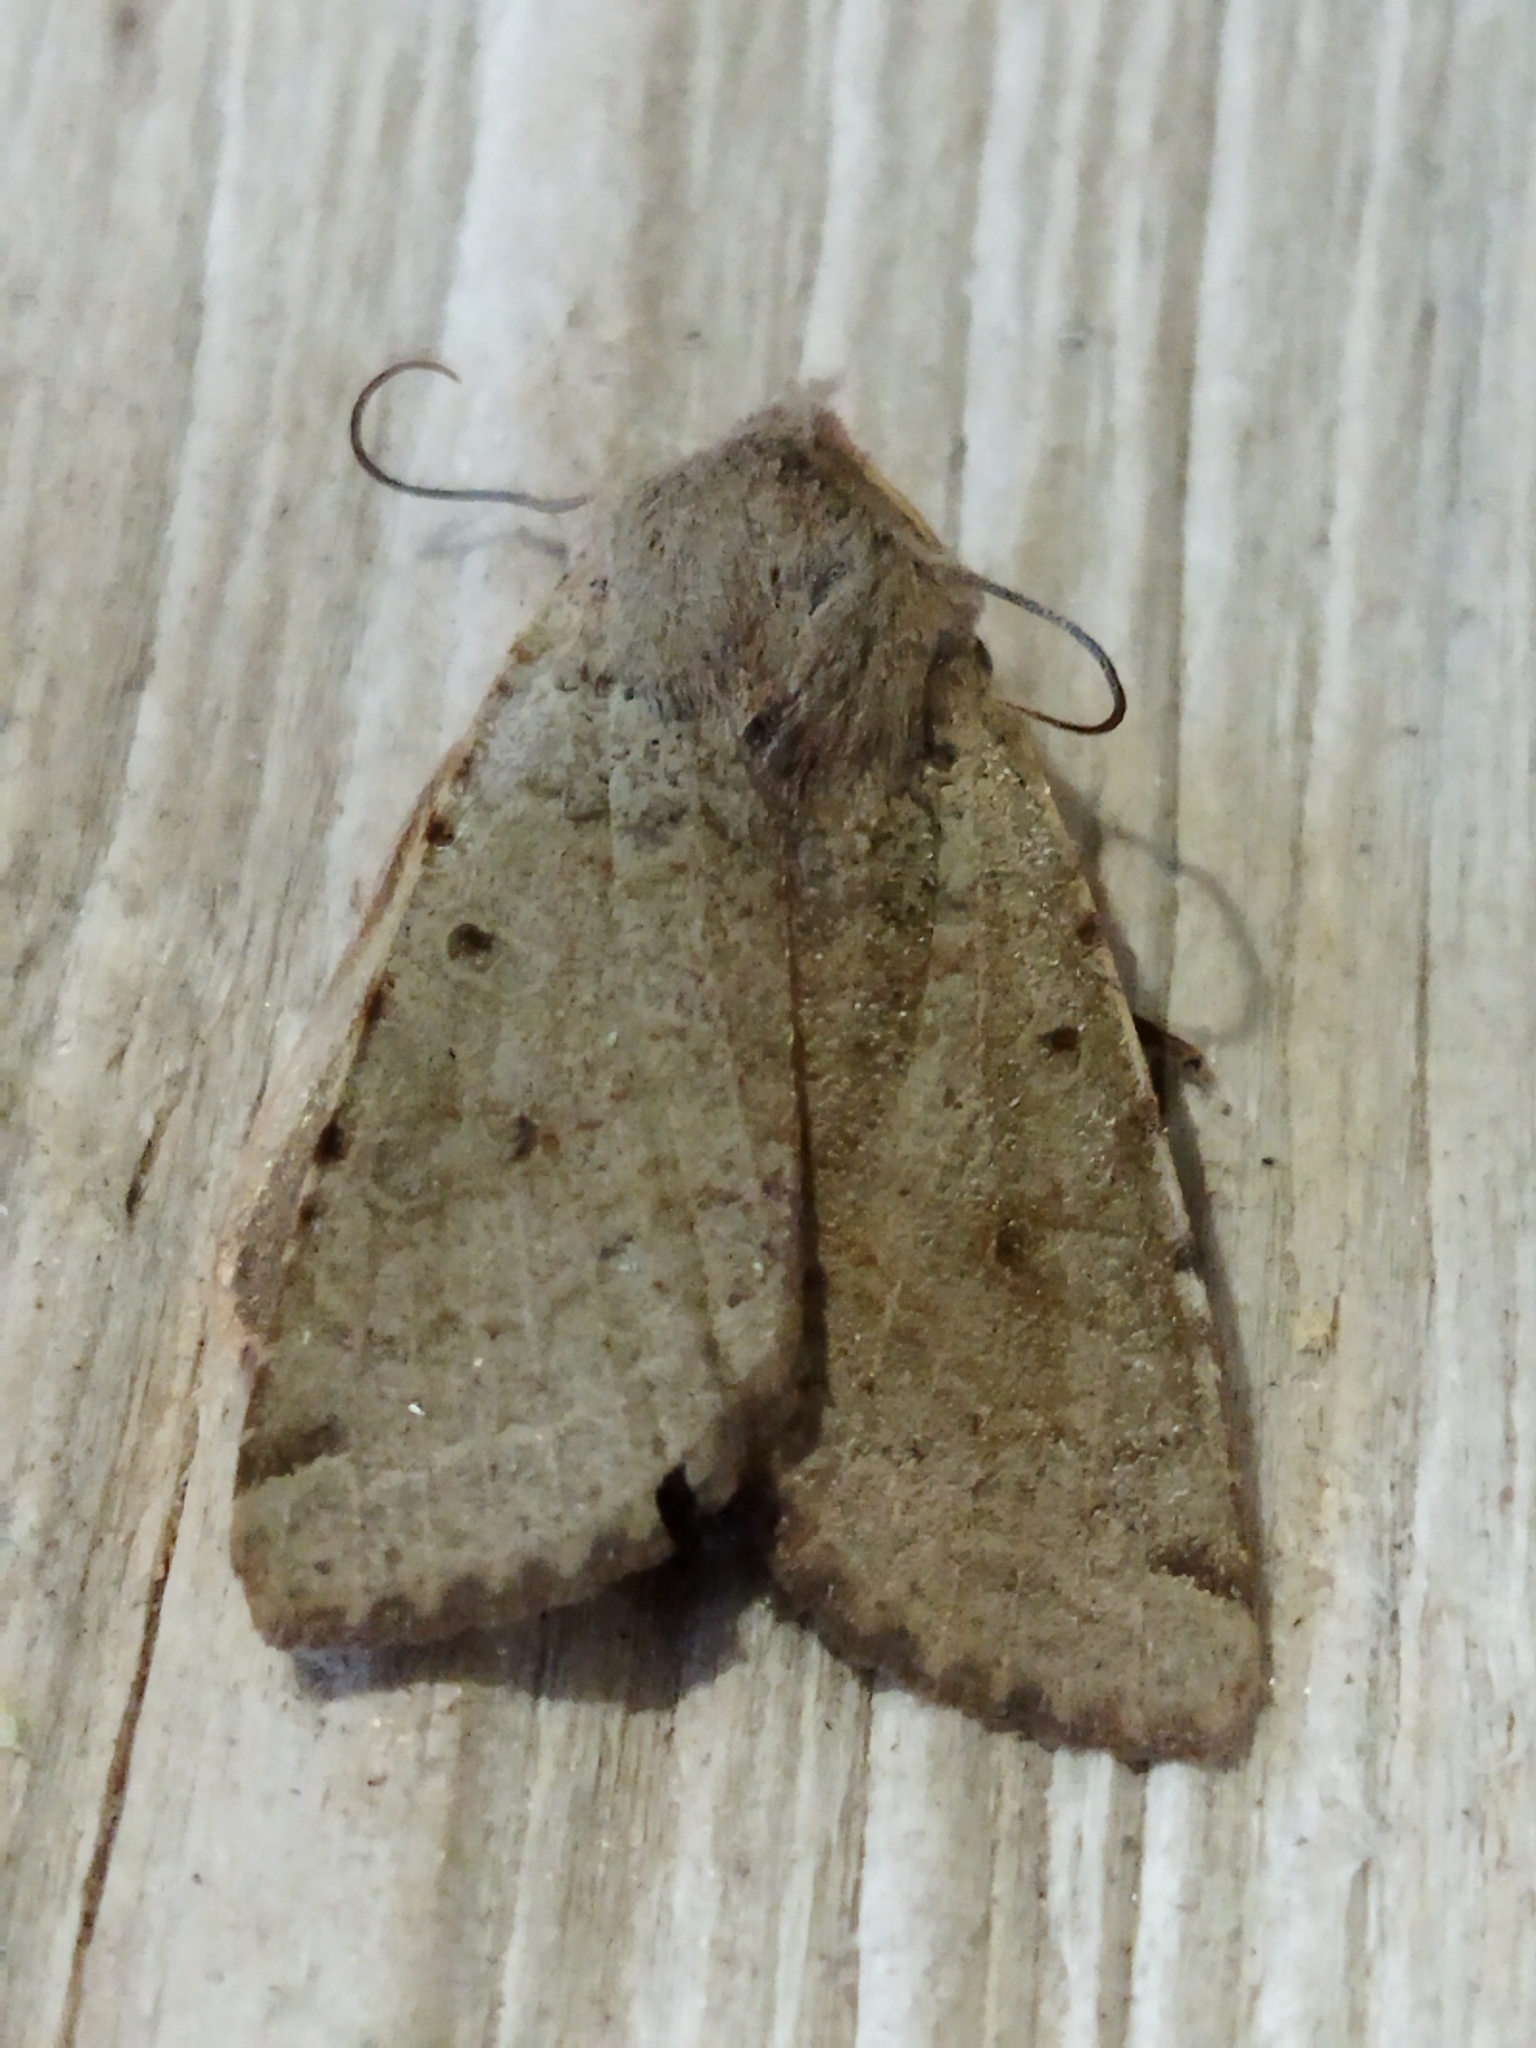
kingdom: Animalia
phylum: Arthropoda
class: Insecta
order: Lepidoptera
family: Noctuidae
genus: Agrochola
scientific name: Agrochola lychnidis
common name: Beaded chestnut
